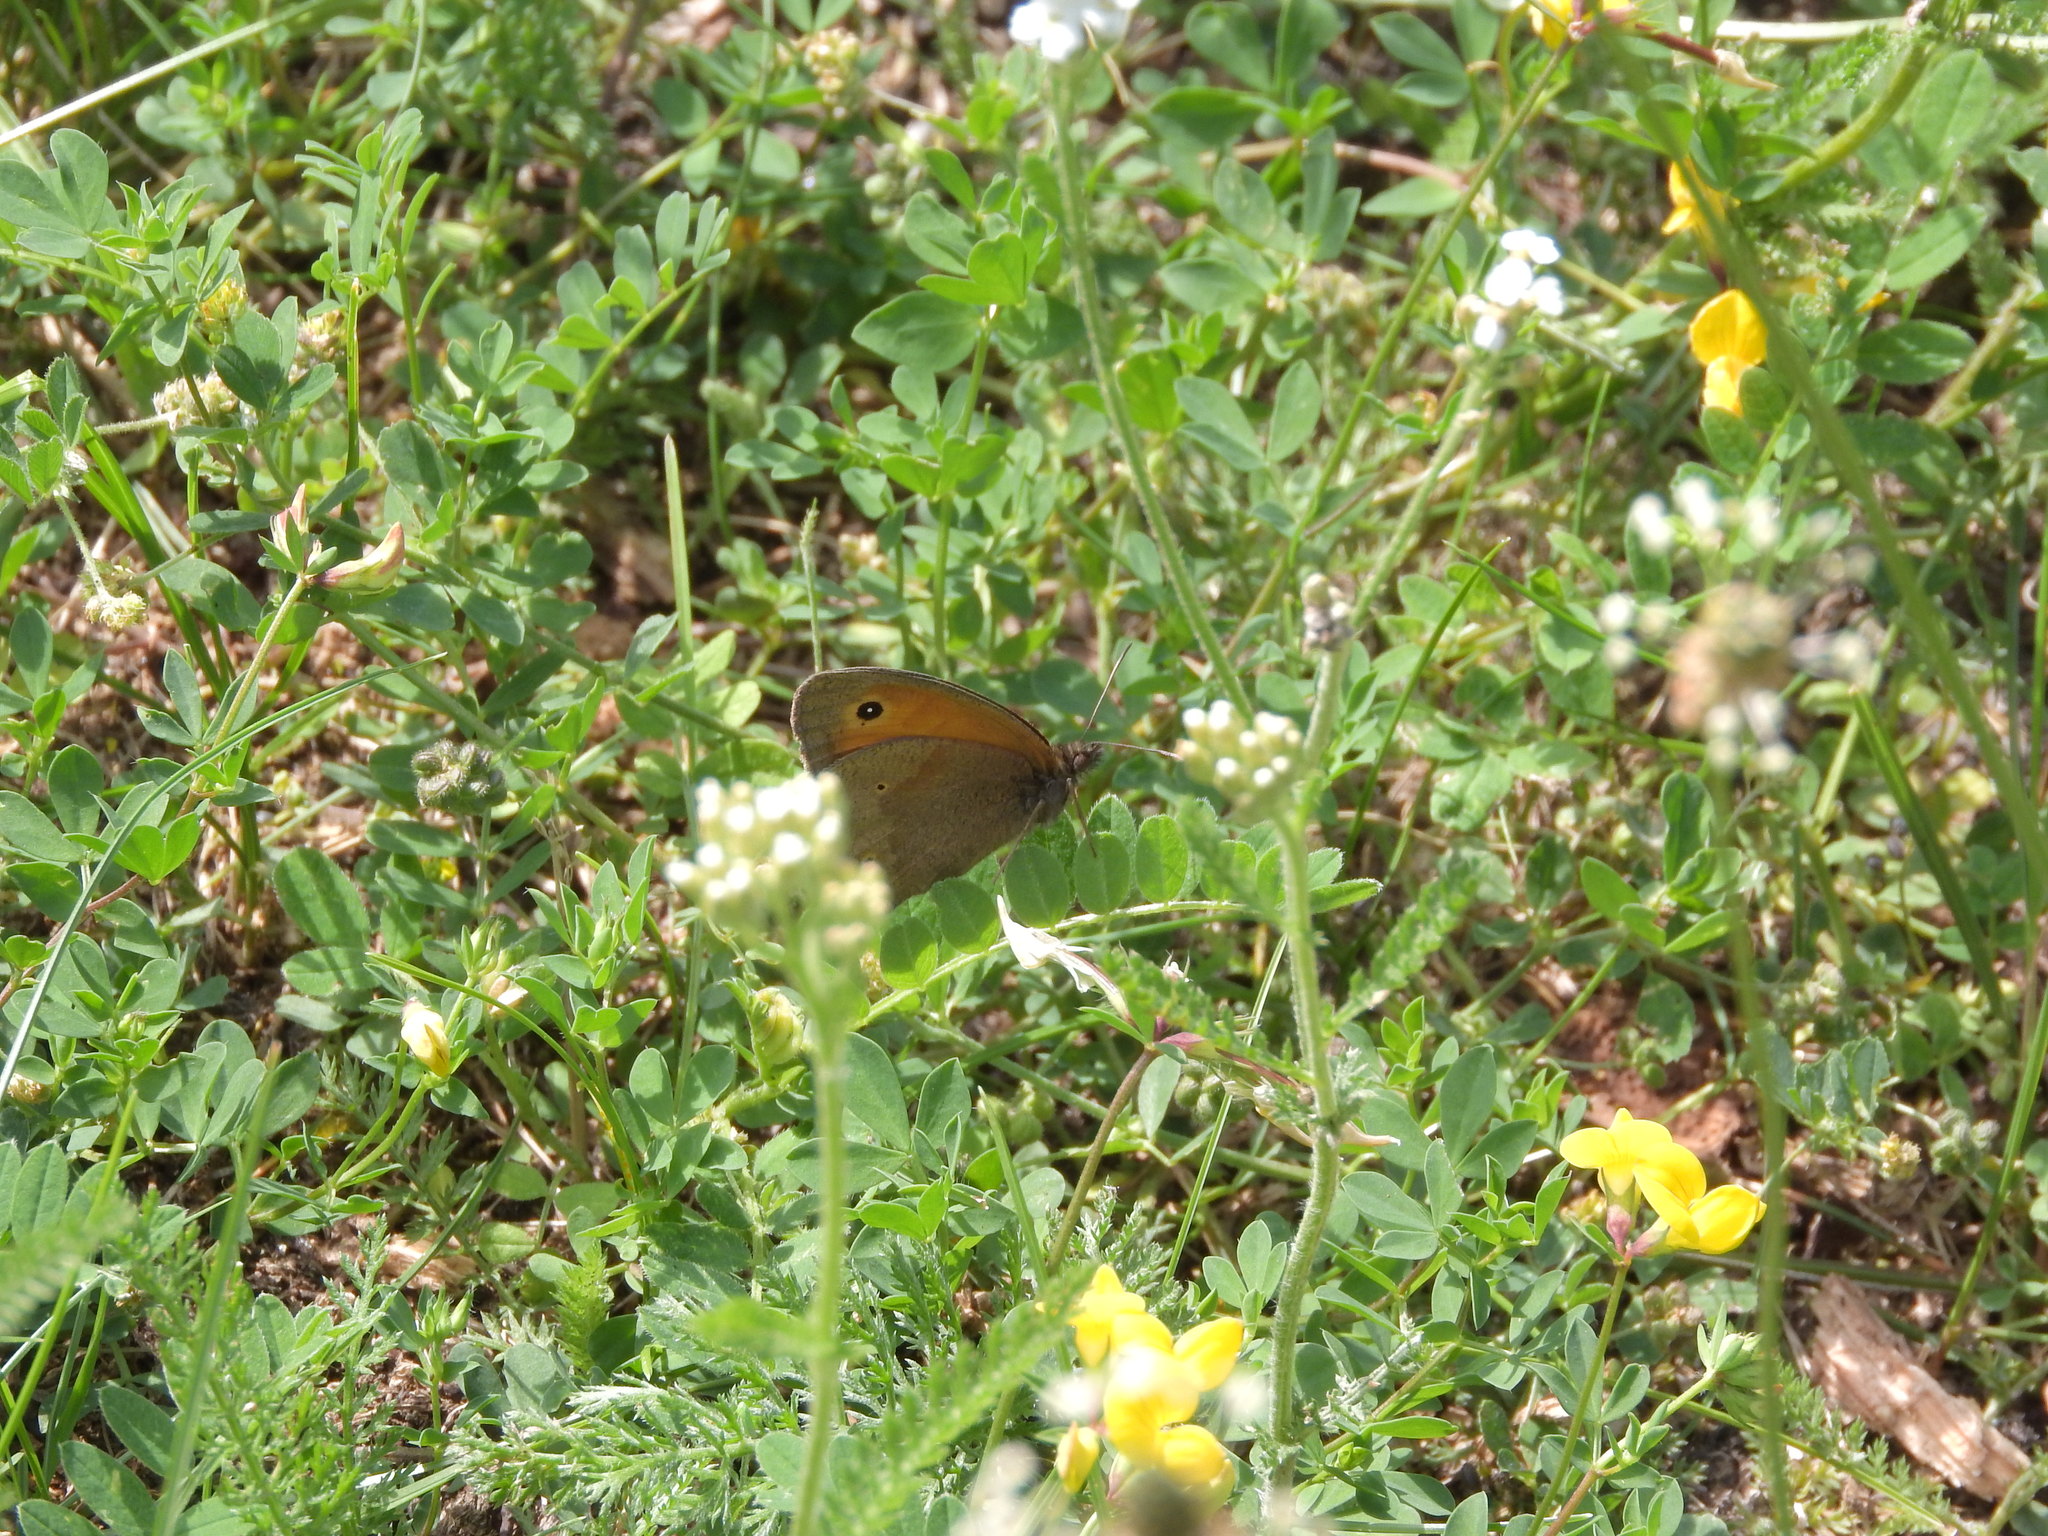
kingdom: Animalia
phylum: Arthropoda
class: Insecta
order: Lepidoptera
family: Nymphalidae
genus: Maniola
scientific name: Maniola jurtina
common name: Meadow brown
